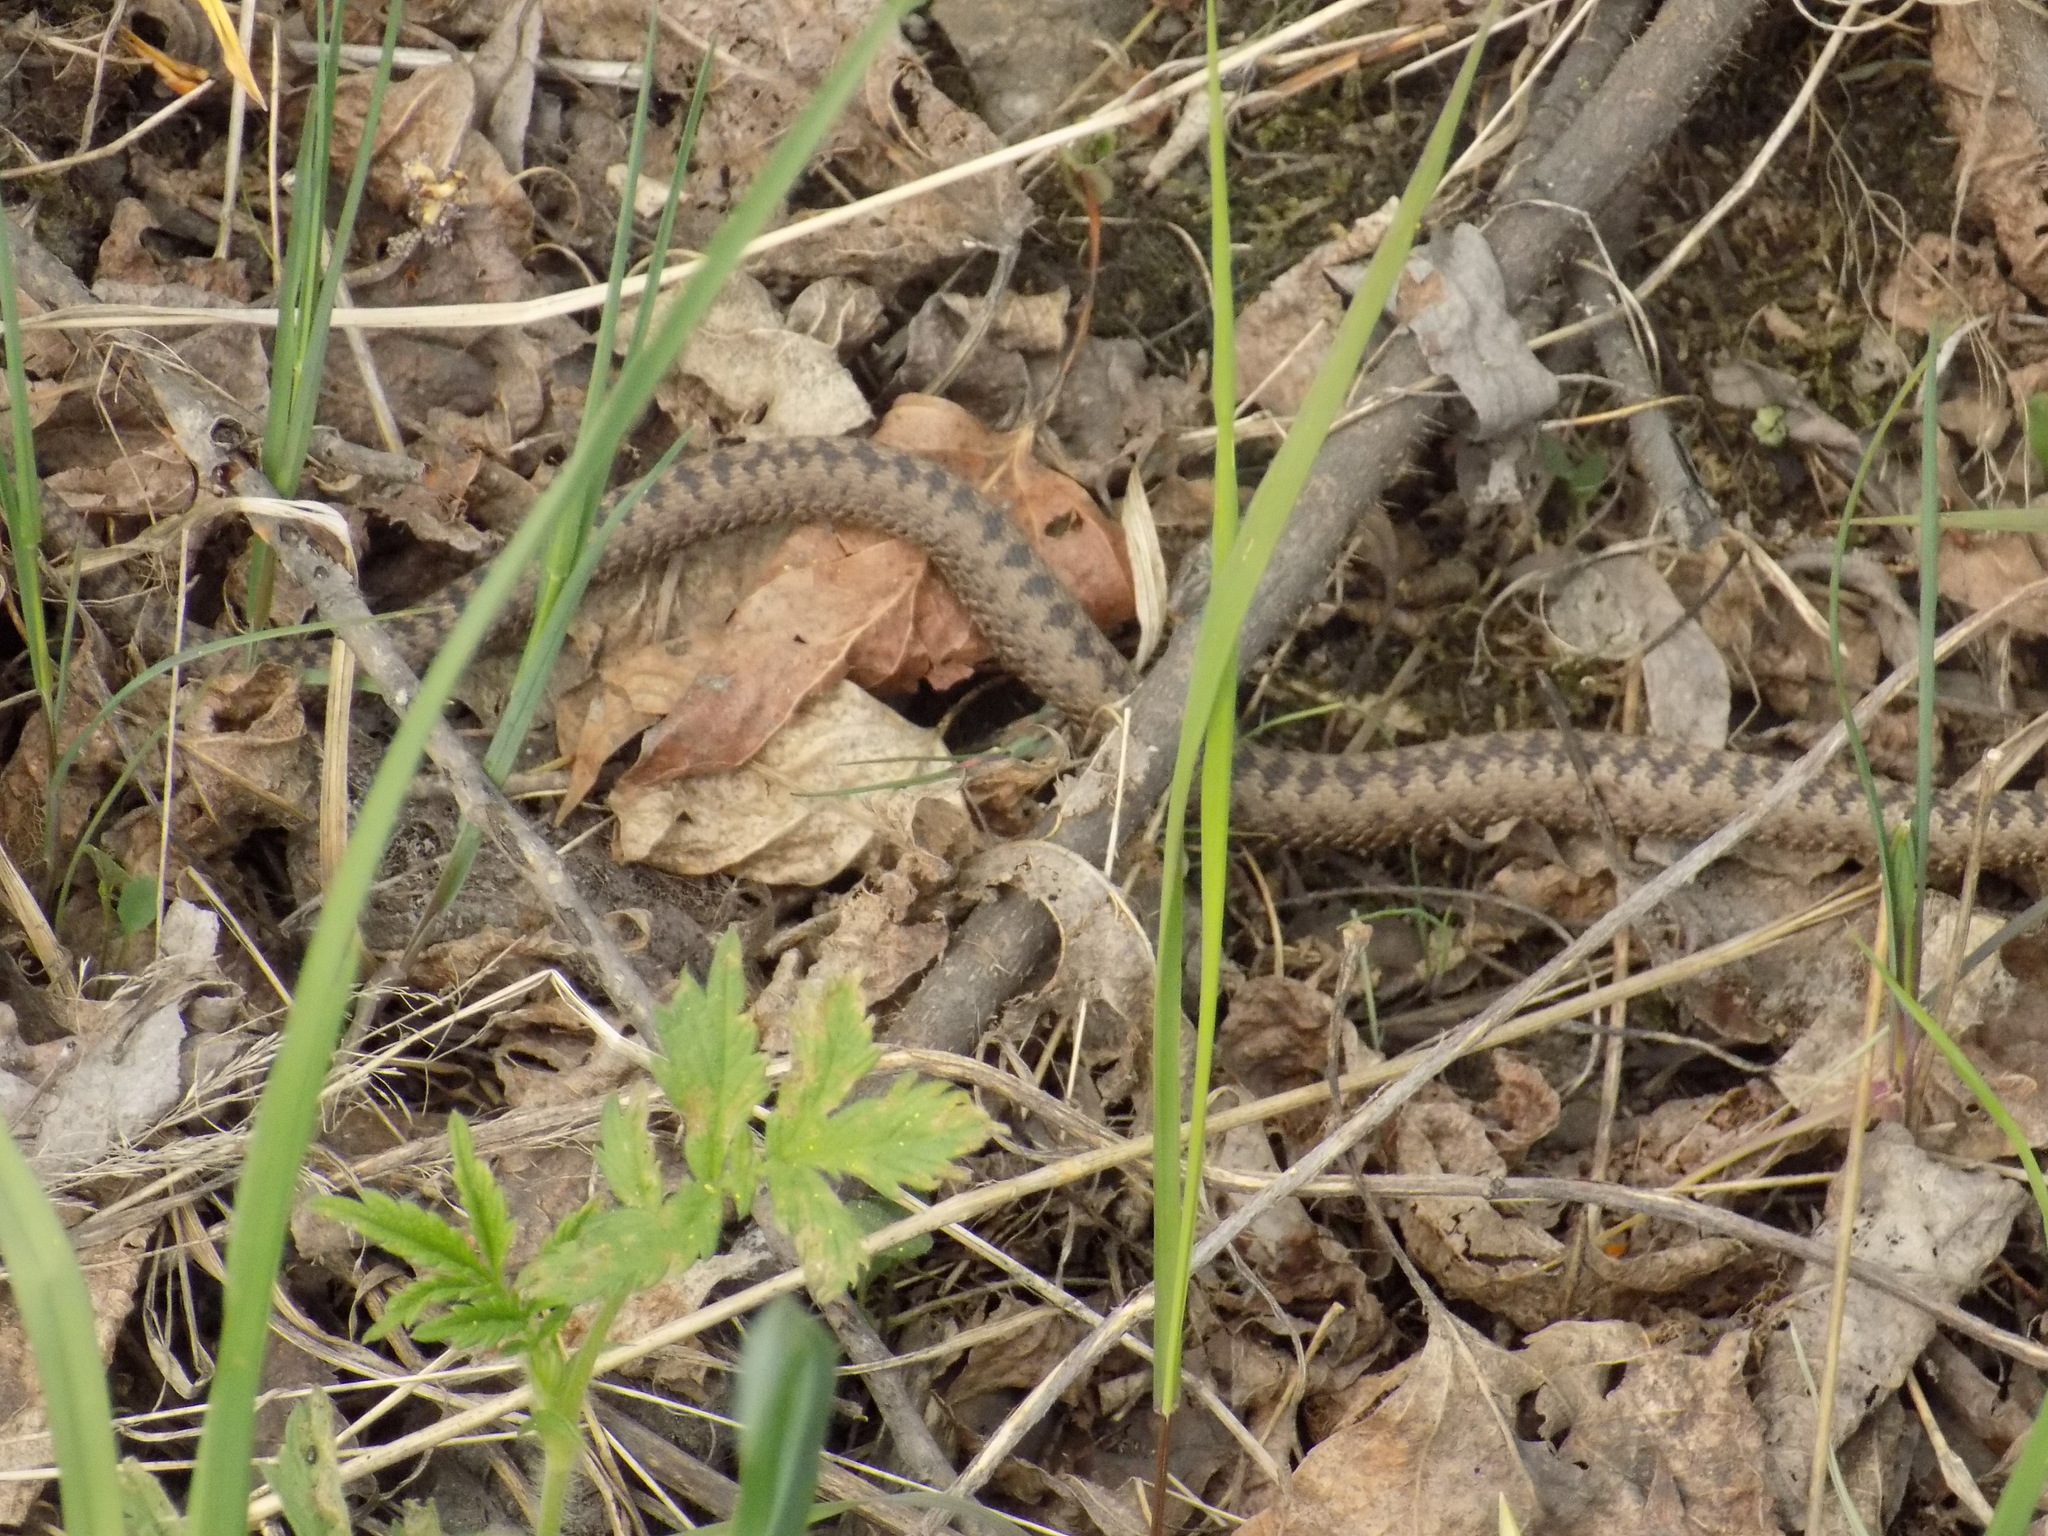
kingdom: Animalia
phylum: Chordata
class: Squamata
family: Viperidae
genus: Vipera
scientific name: Vipera berus
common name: Adder
